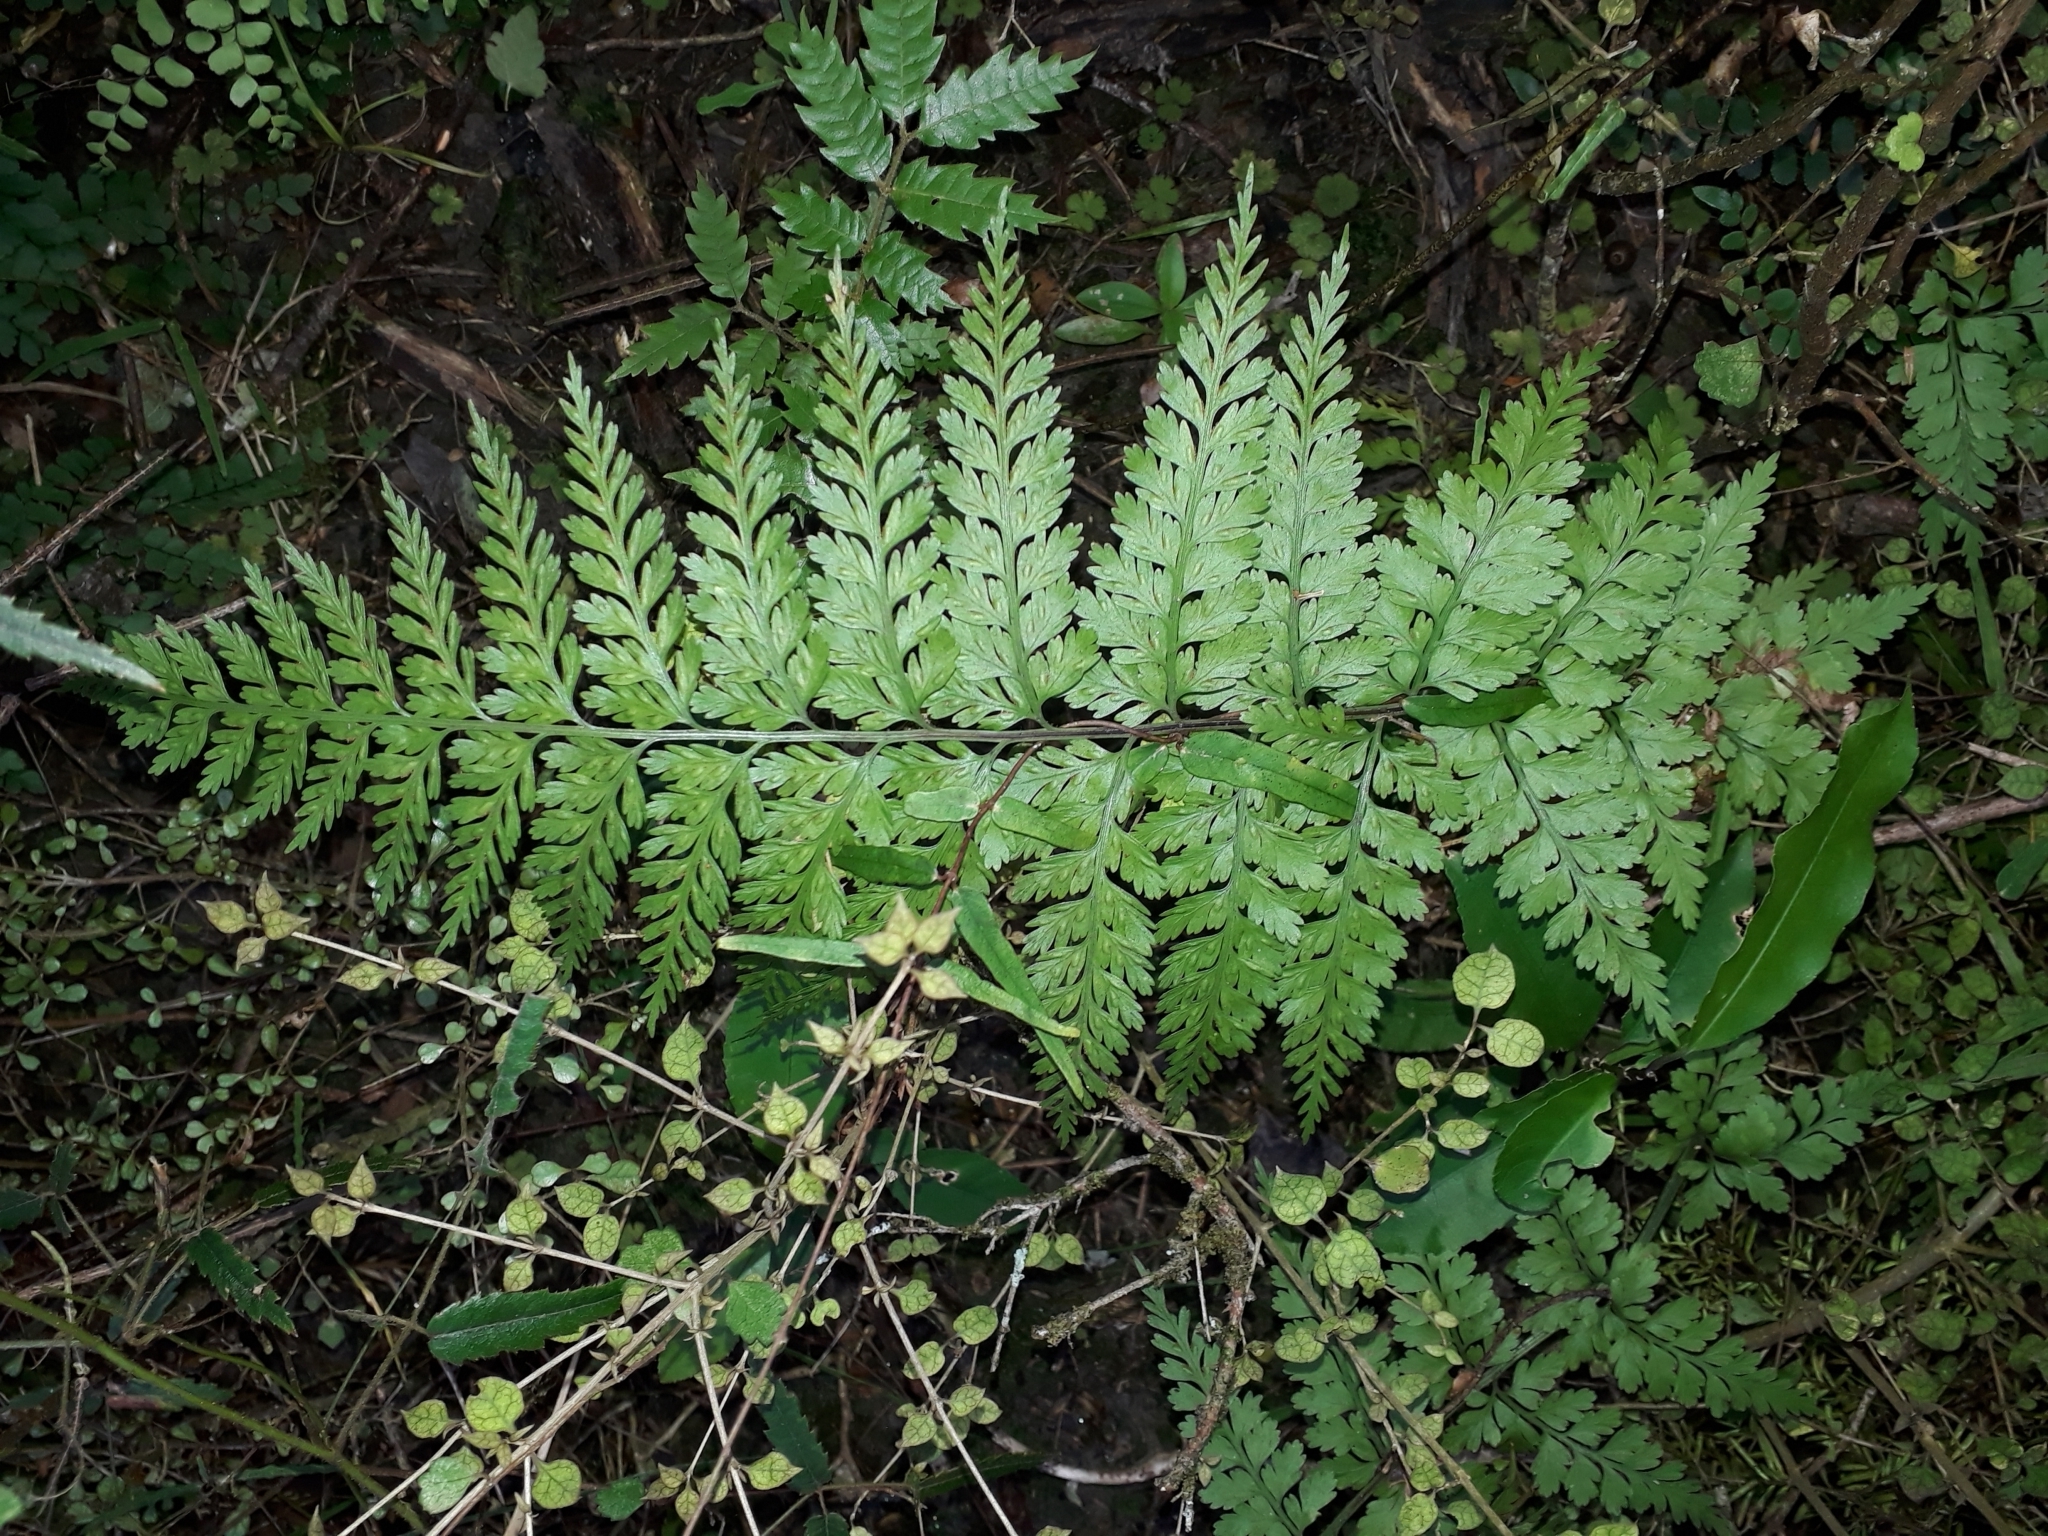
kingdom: Plantae
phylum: Tracheophyta
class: Polypodiopsida
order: Polypodiales
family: Aspleniaceae
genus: Asplenium
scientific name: Asplenium
